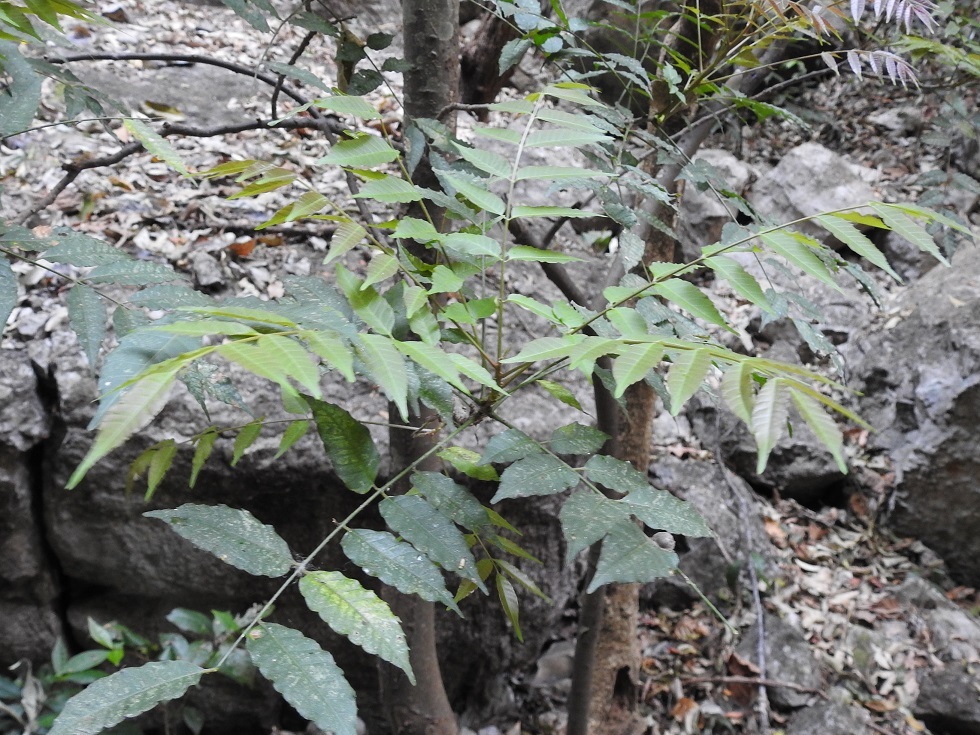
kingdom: Plantae
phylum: Tracheophyta
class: Magnoliopsida
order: Sapindales
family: Anacardiaceae
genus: Astronium
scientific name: Astronium graveolens
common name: Glassywood
